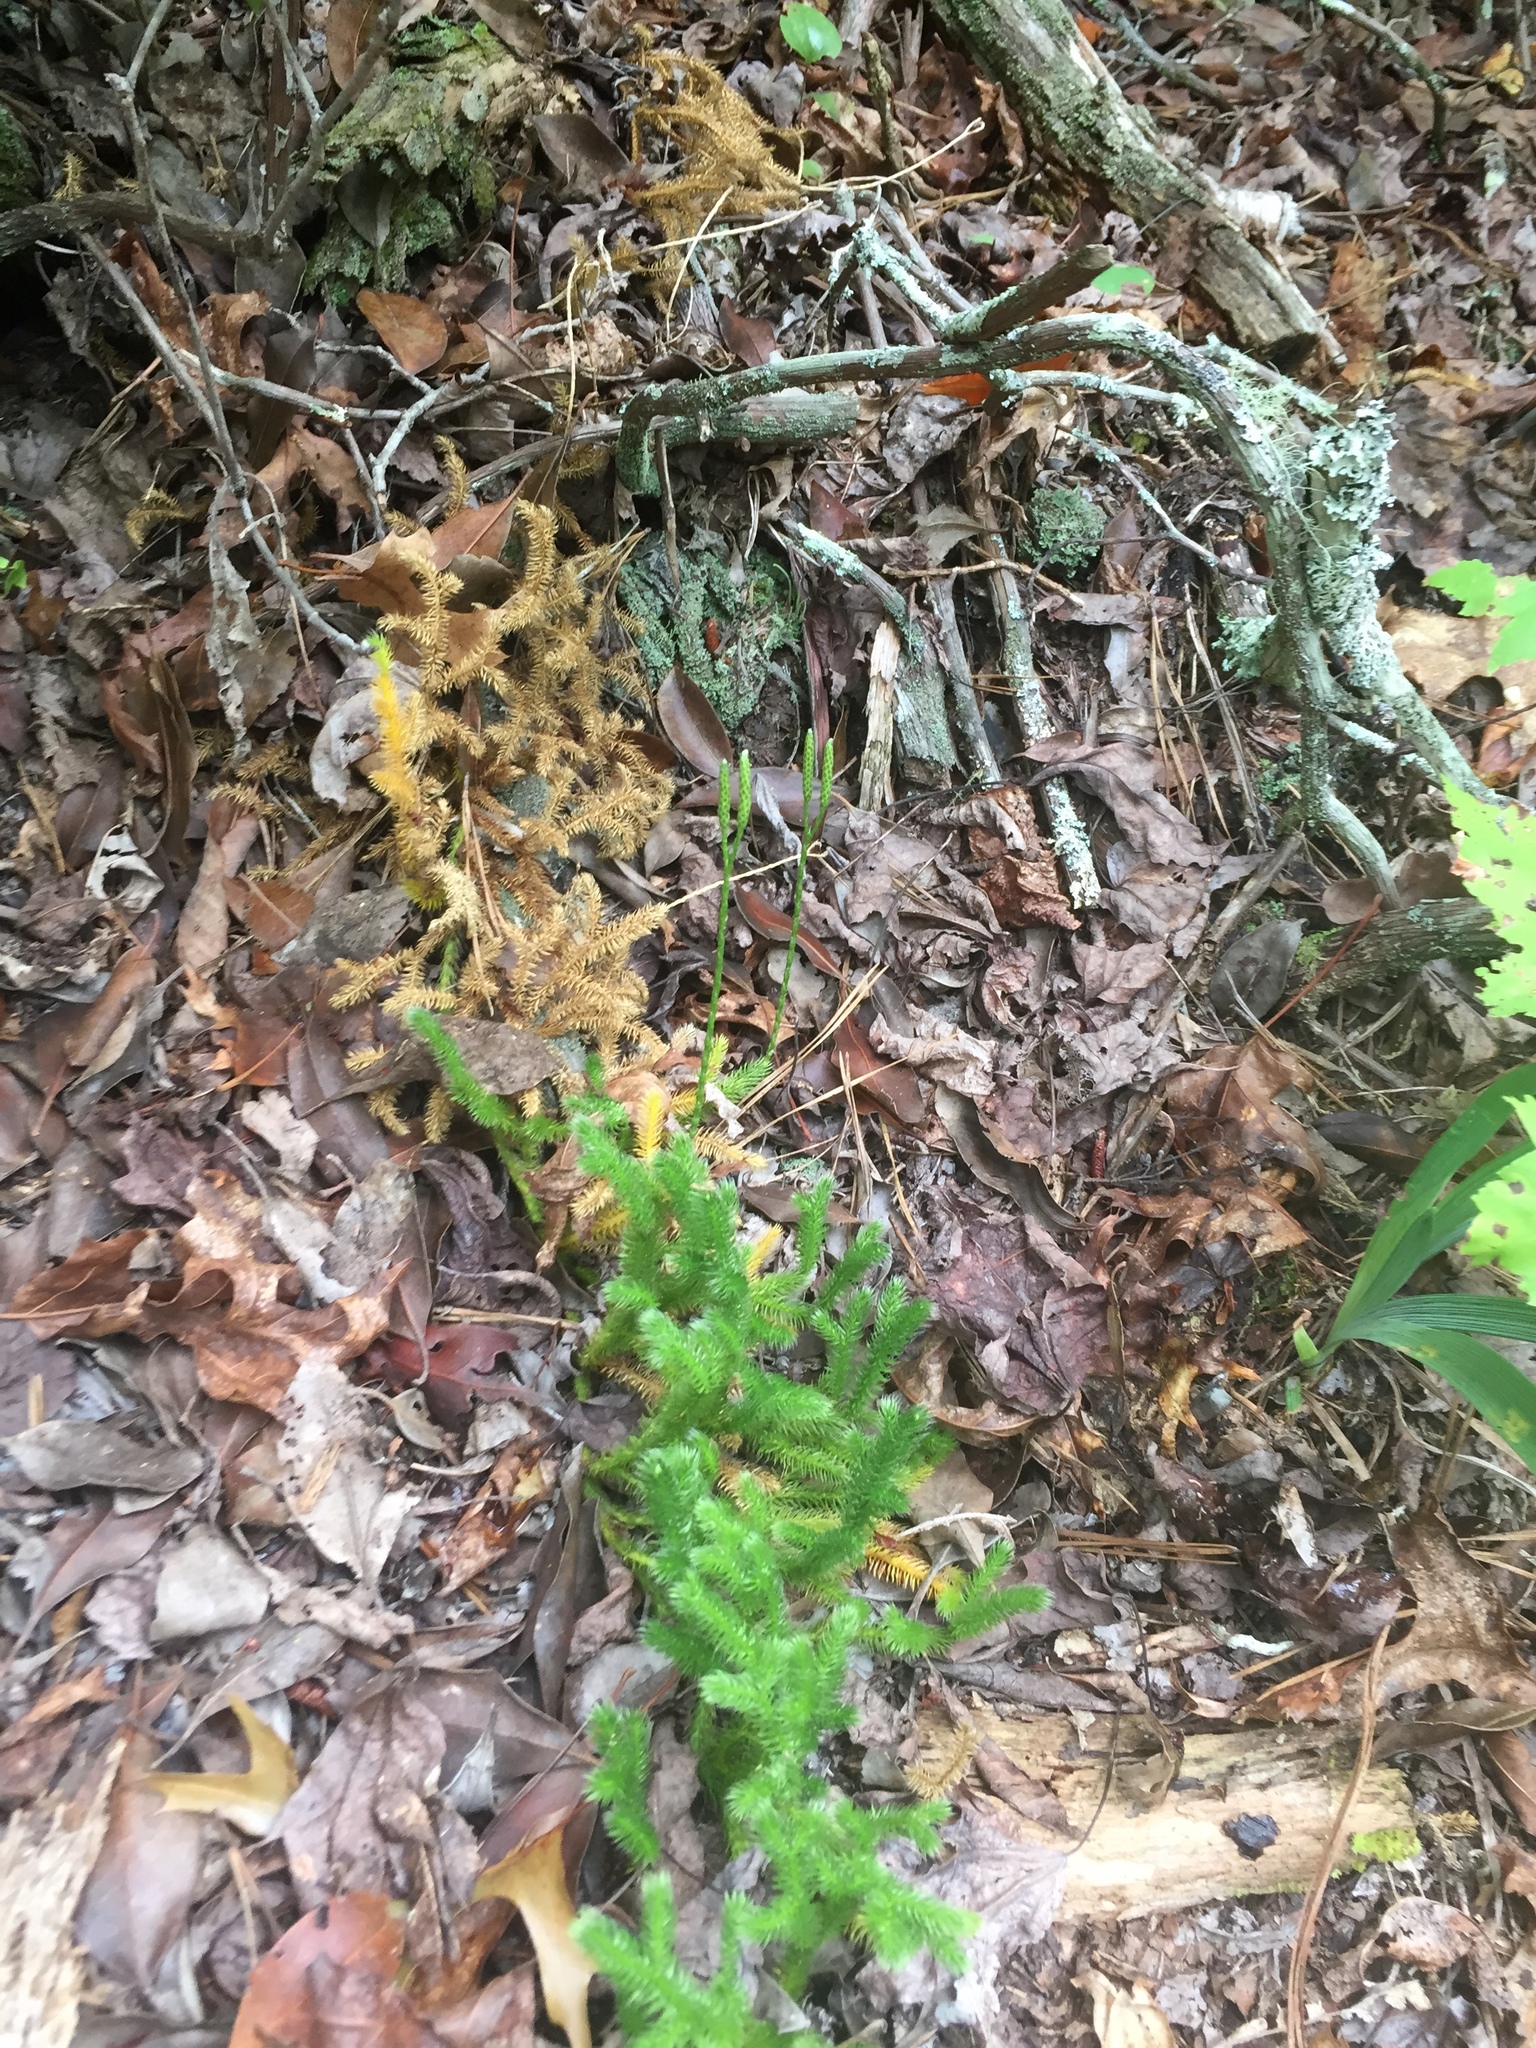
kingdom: Plantae
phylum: Tracheophyta
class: Lycopodiopsida
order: Lycopodiales
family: Lycopodiaceae
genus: Lycopodium
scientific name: Lycopodium clavatum
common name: Stag's-horn clubmoss
